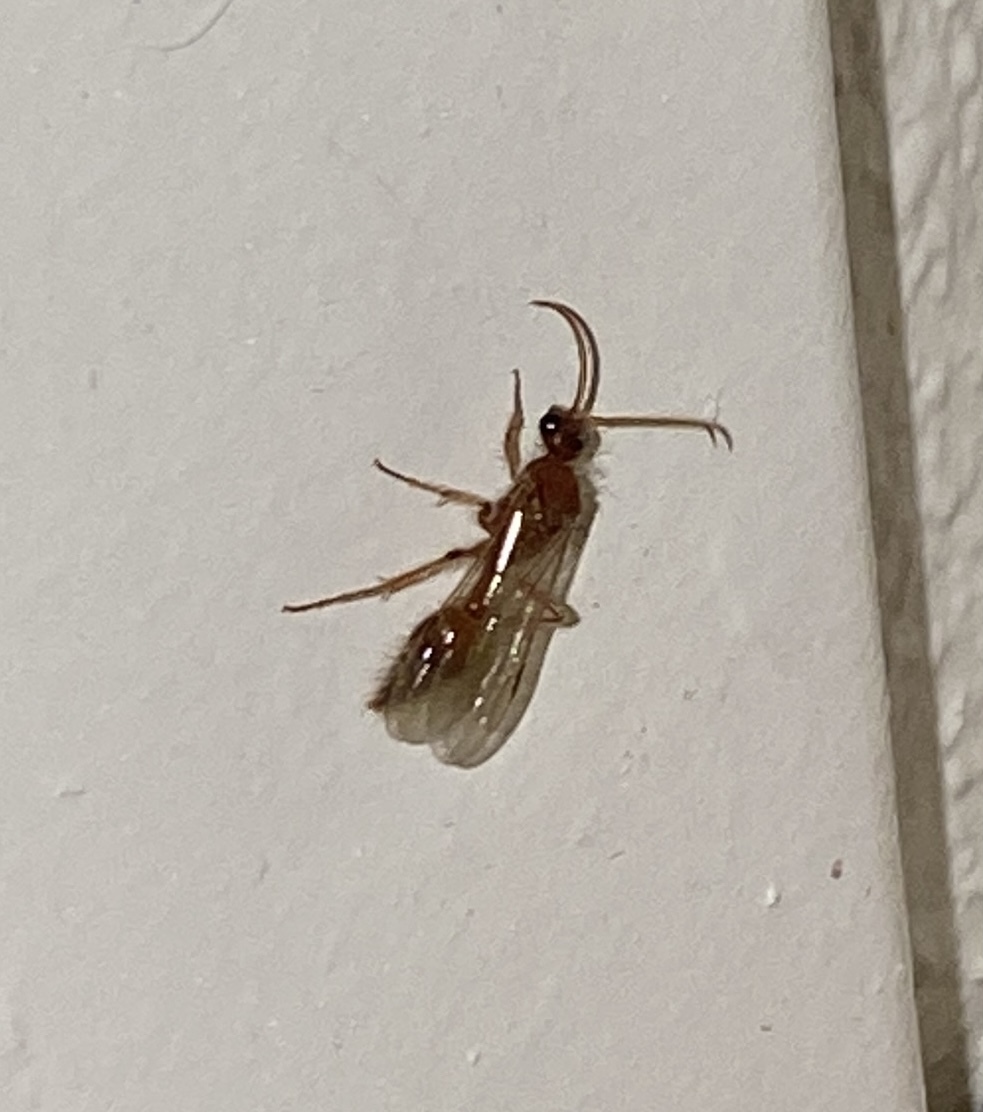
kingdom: Animalia
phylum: Arthropoda
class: Insecta
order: Hymenoptera
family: Mutillidae
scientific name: Mutillidae
